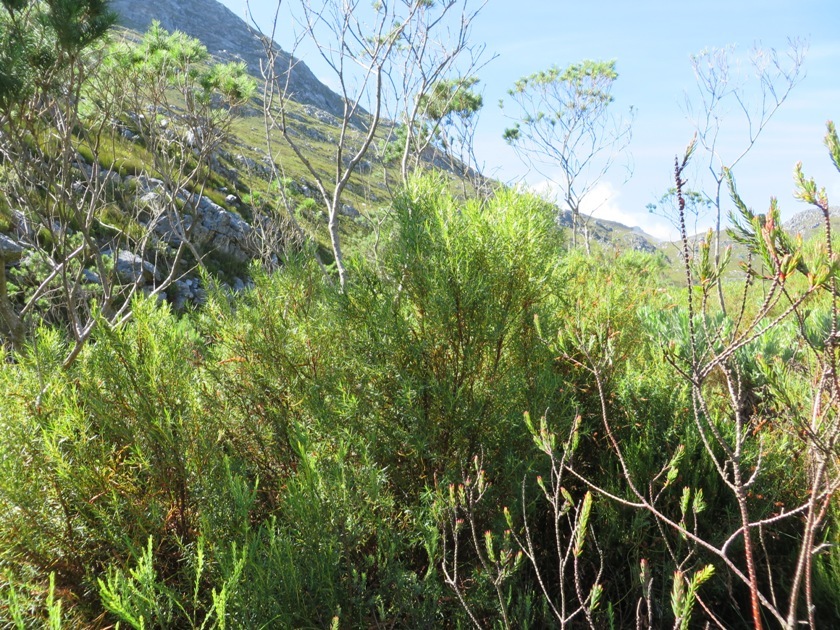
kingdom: Plantae
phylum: Tracheophyta
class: Magnoliopsida
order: Sapindales
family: Rutaceae
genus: Empleurum
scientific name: Empleurum unicapsulare
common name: False buchu
